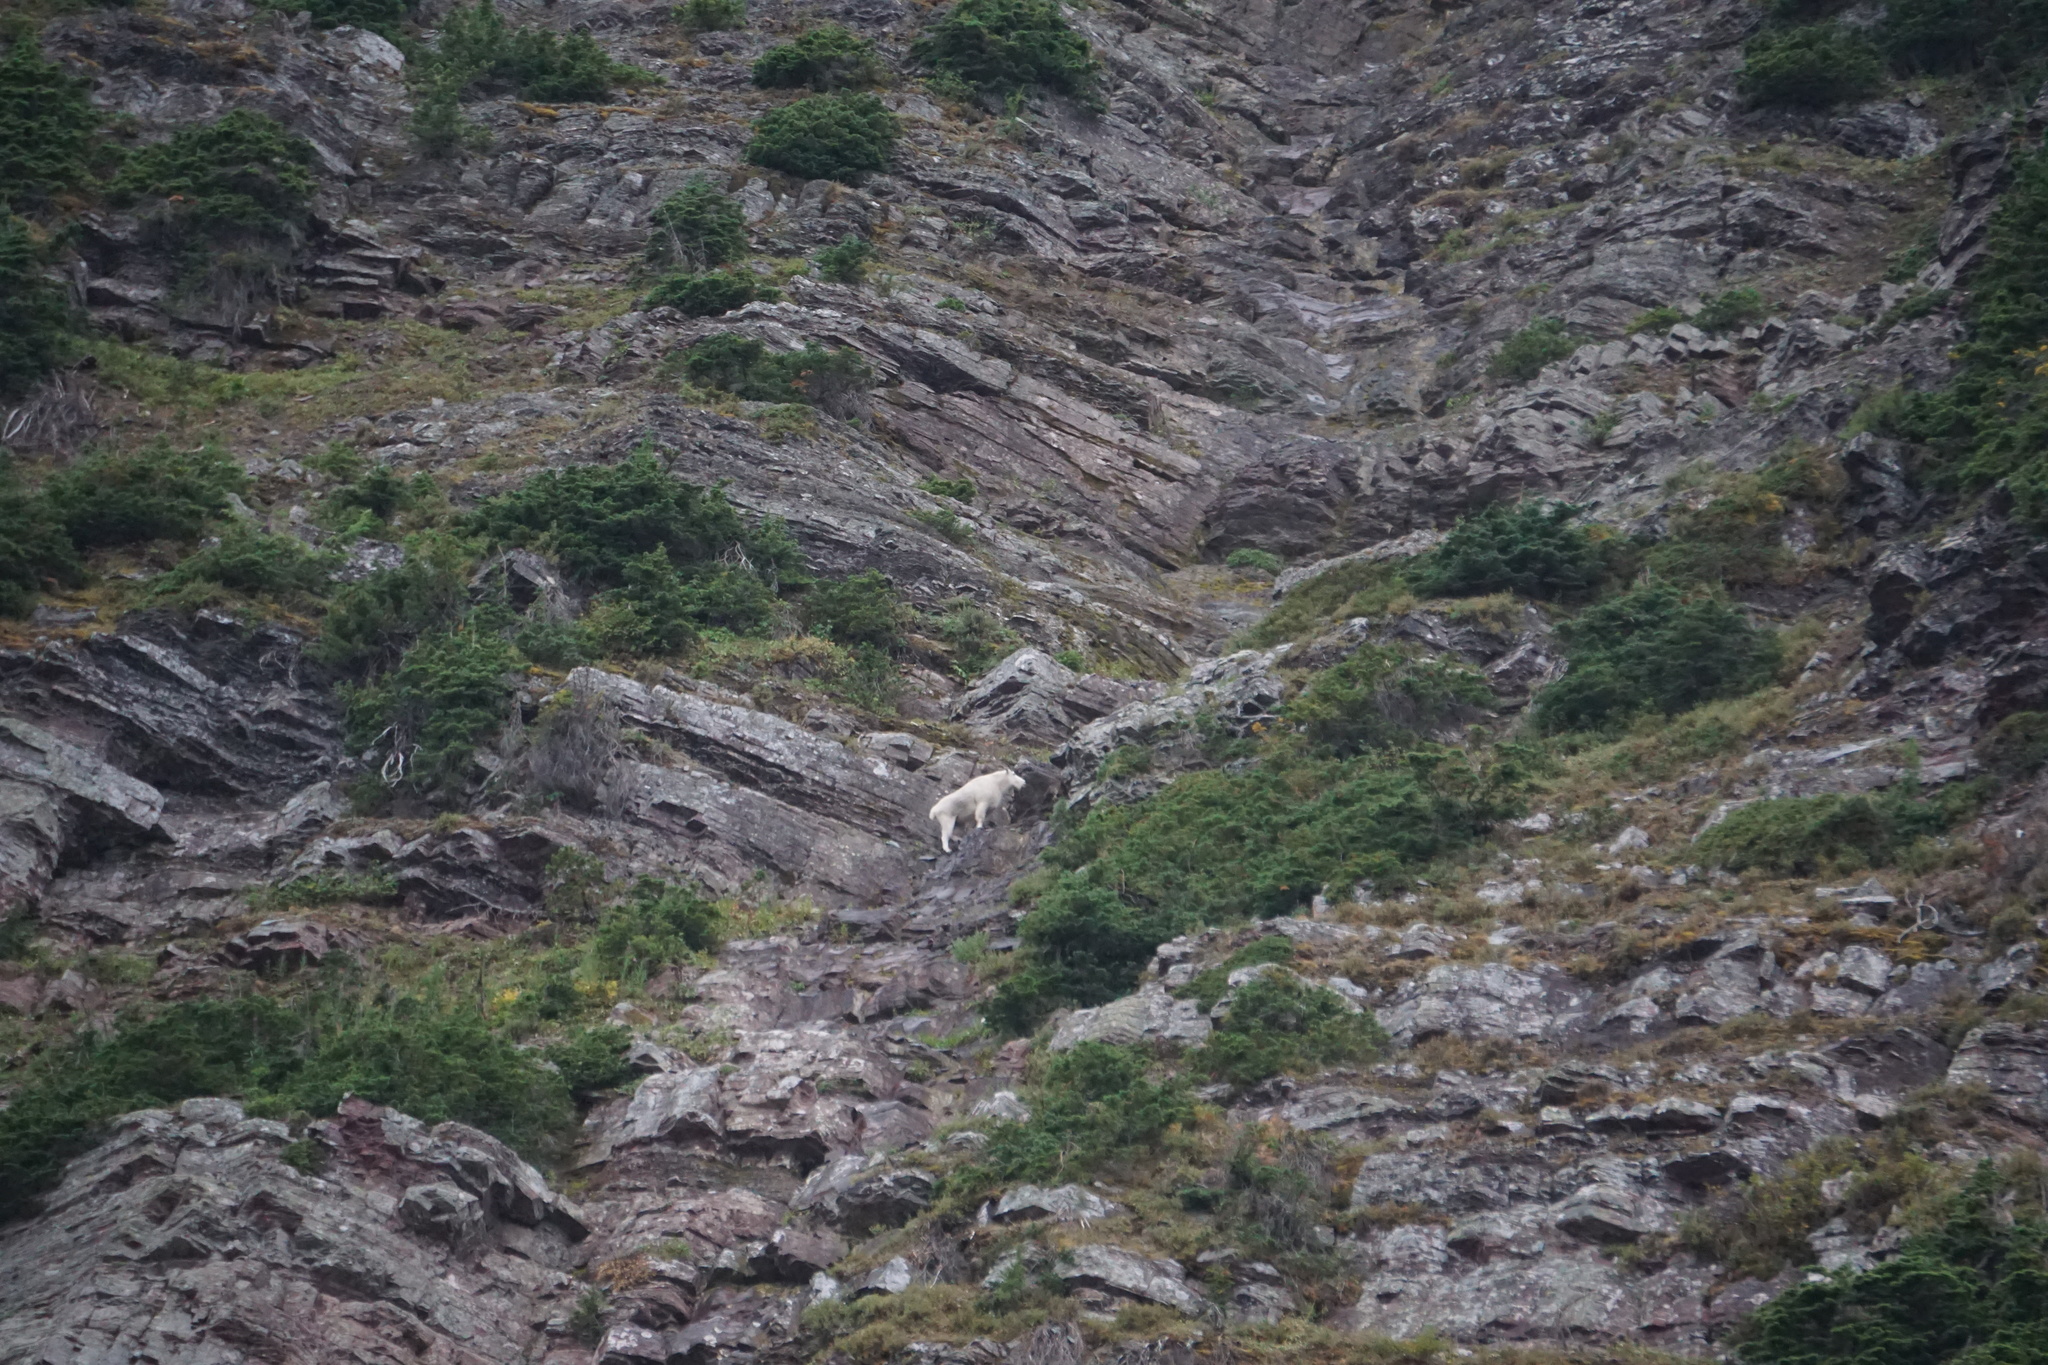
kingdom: Animalia
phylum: Chordata
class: Mammalia
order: Artiodactyla
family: Bovidae
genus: Oreamnos
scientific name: Oreamnos americanus
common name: Mountain goat
